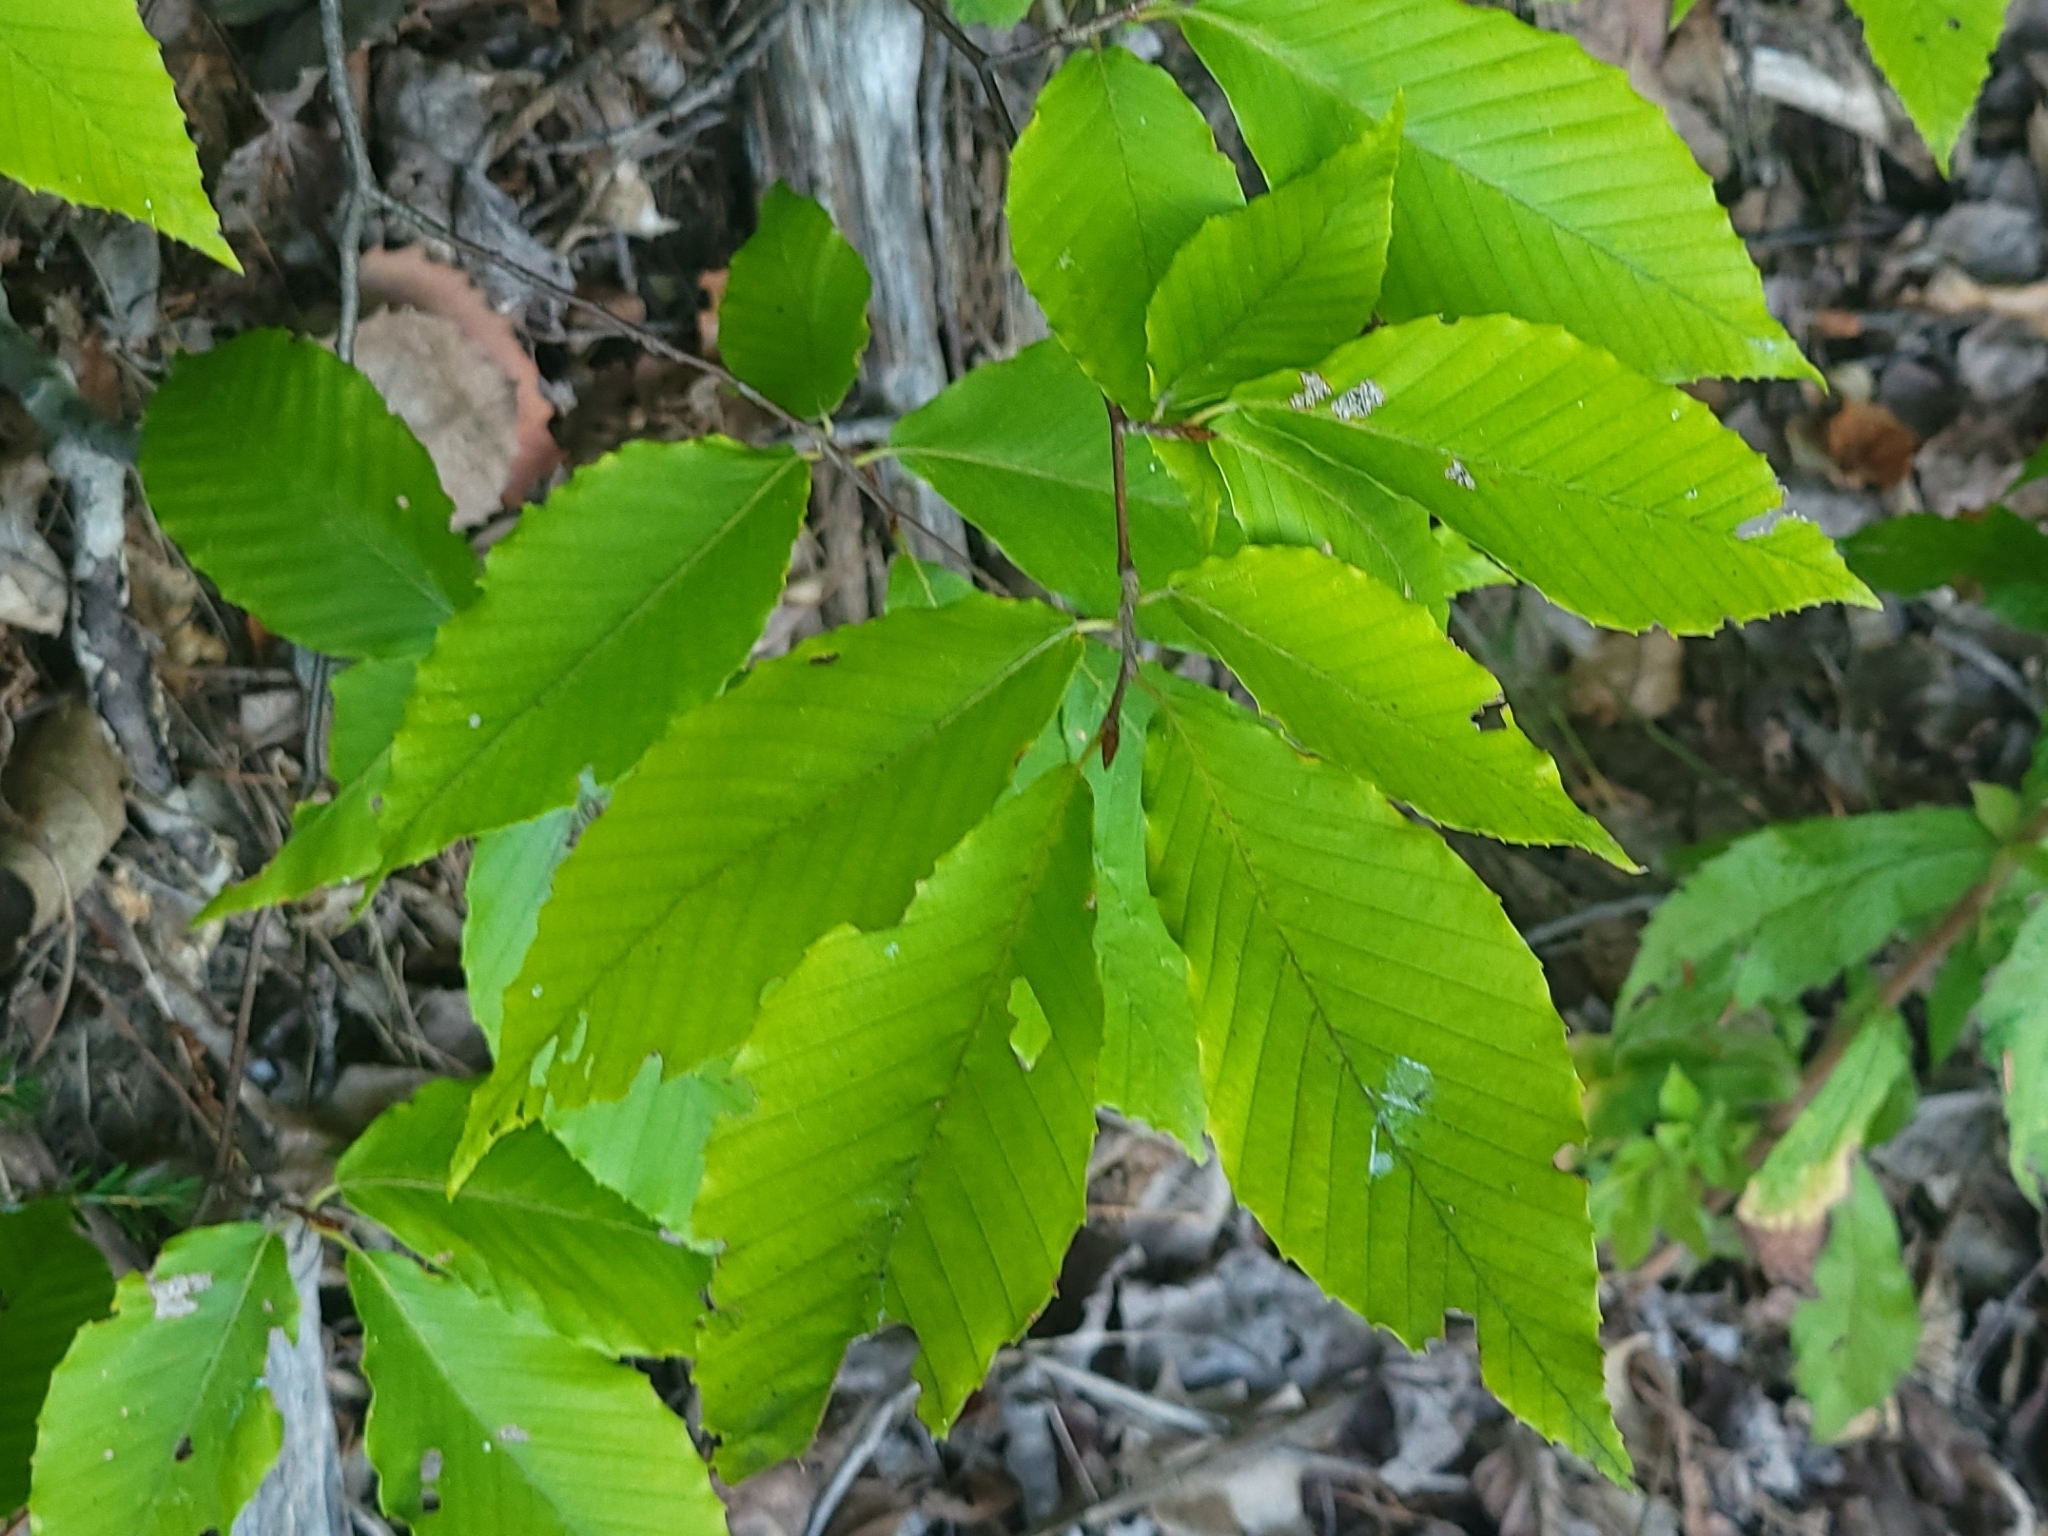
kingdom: Plantae
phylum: Tracheophyta
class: Magnoliopsida
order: Fagales
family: Fagaceae
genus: Fagus
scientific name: Fagus grandifolia
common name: American beech
